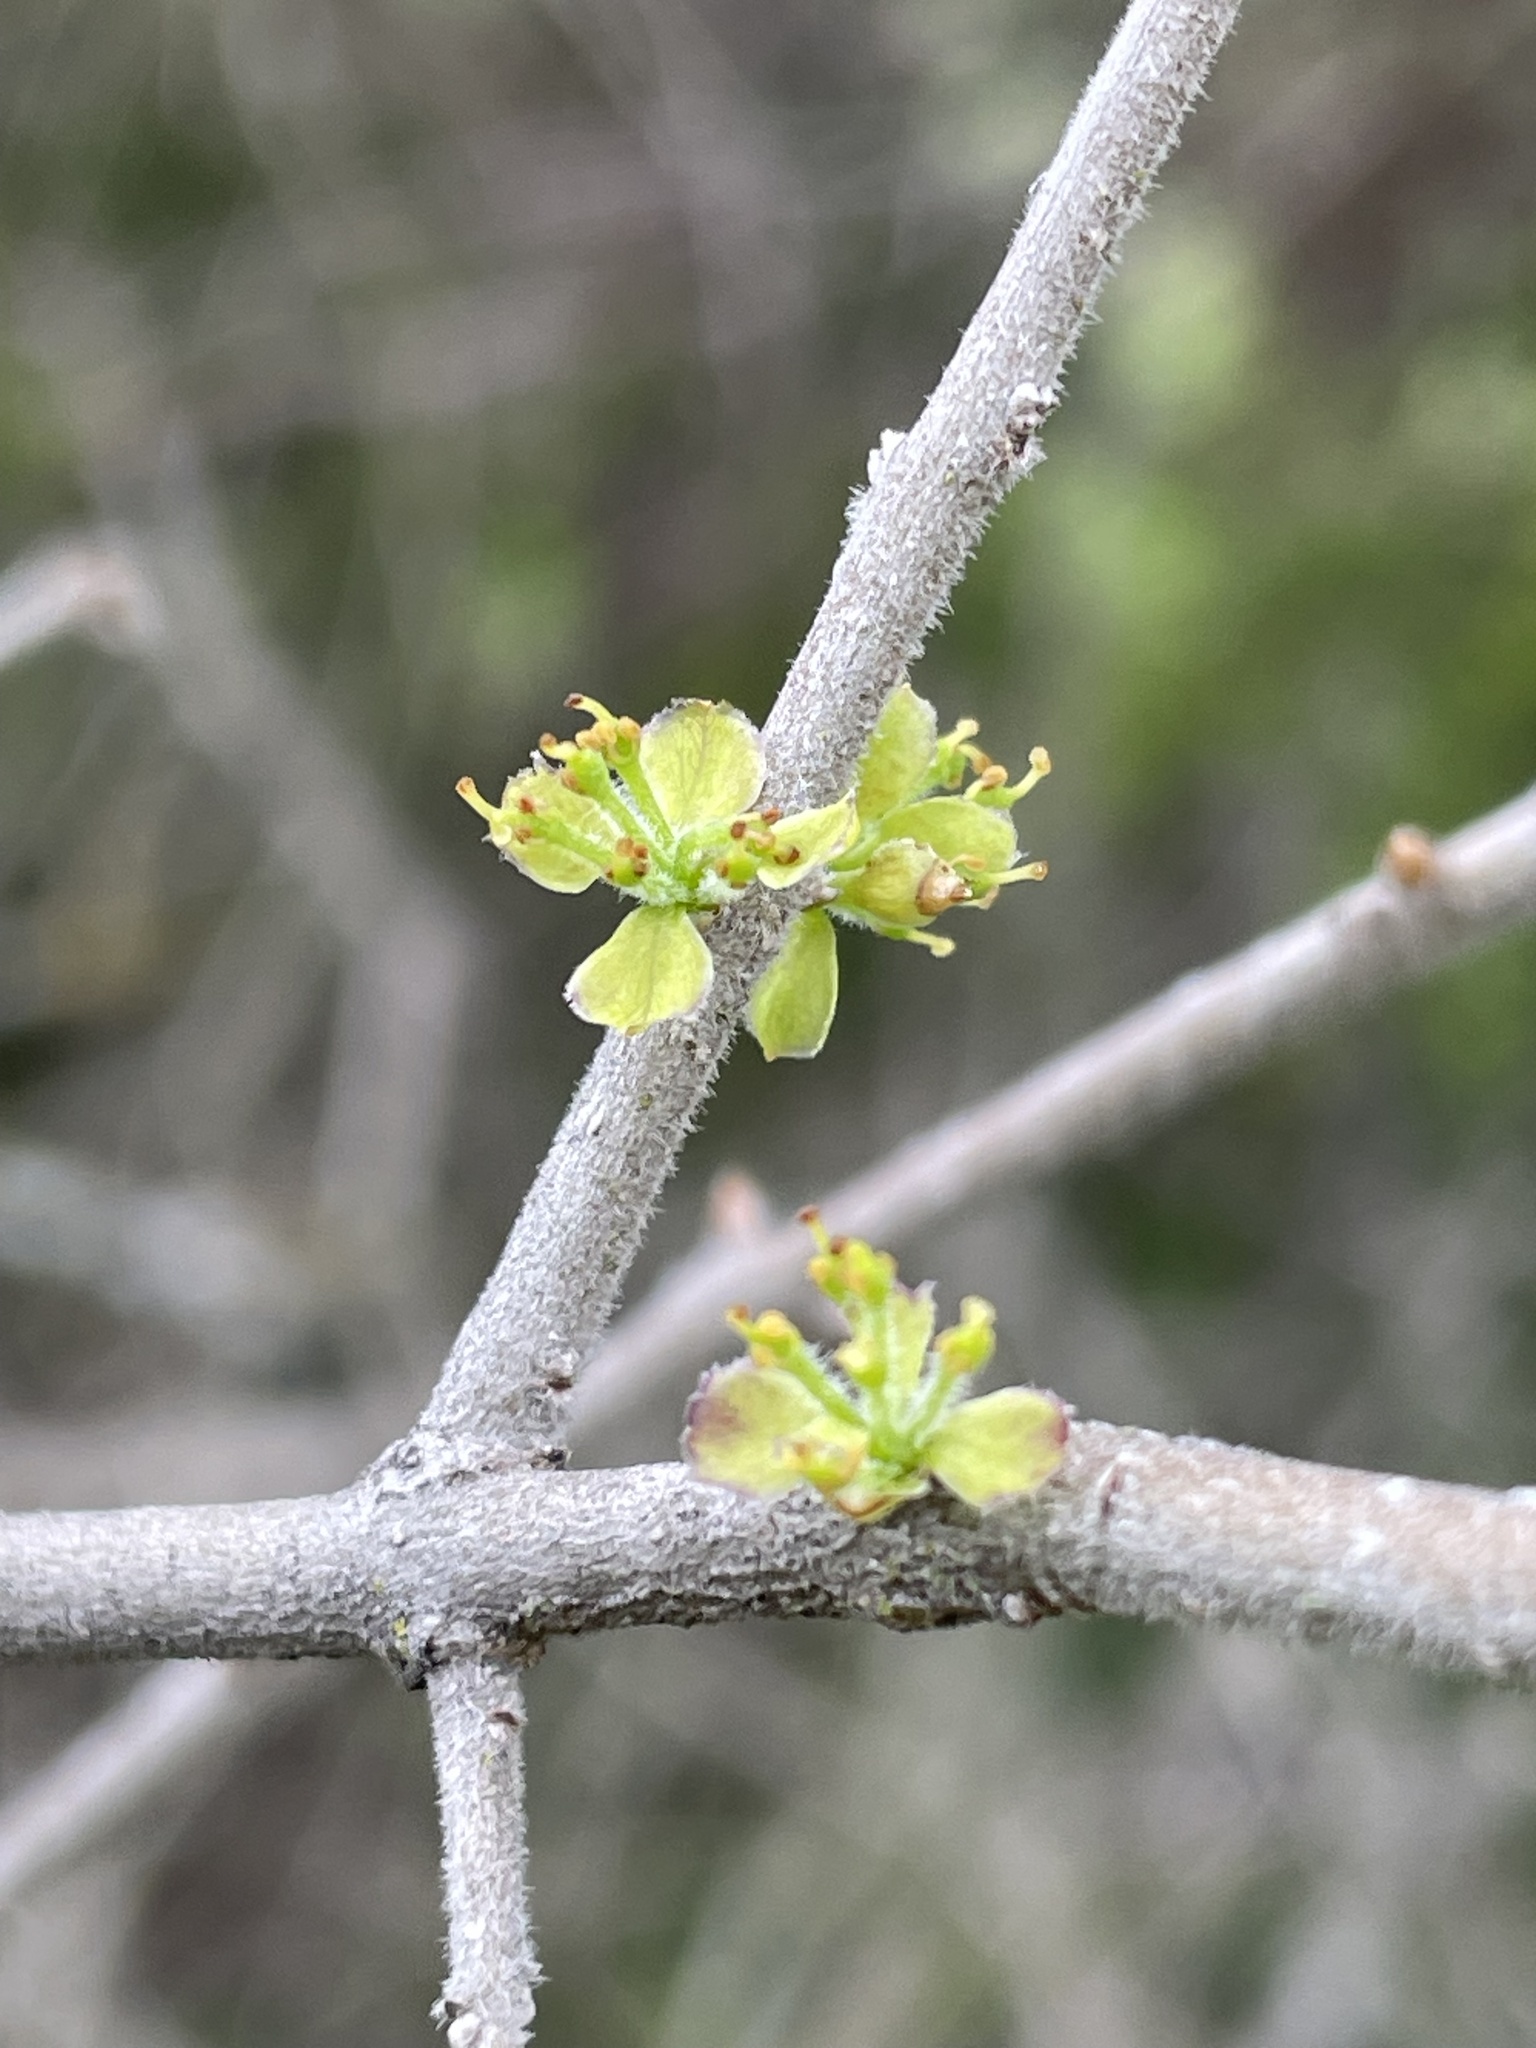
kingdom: Plantae
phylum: Tracheophyta
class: Magnoliopsida
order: Lamiales
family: Oleaceae
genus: Forestiera
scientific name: Forestiera pubescens
